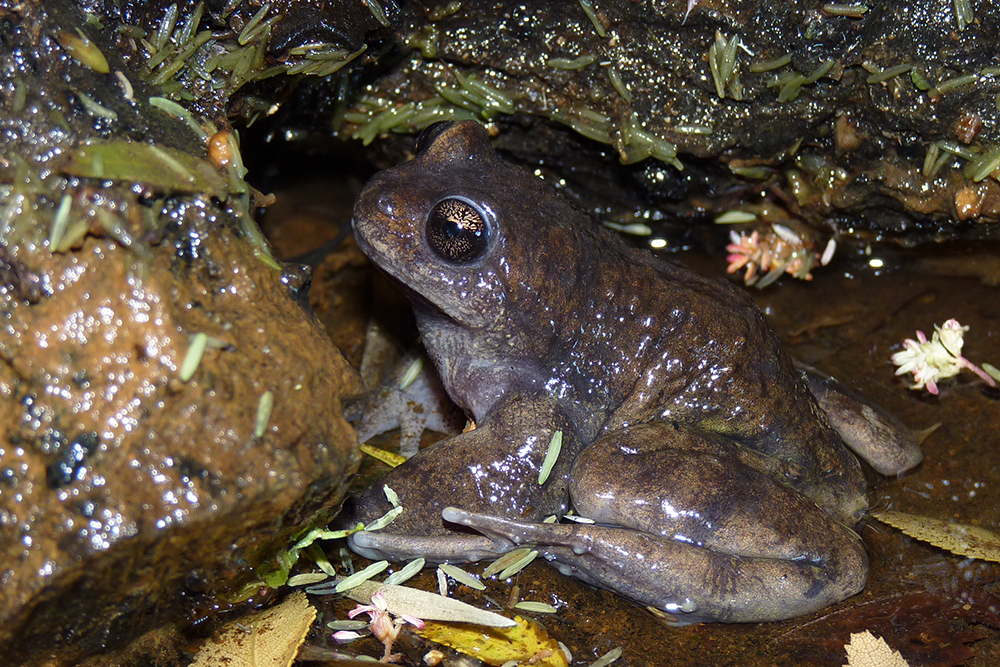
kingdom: Animalia
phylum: Chordata
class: Amphibia
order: Anura
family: Alsodidae
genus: Alsodes
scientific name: Alsodes australis
